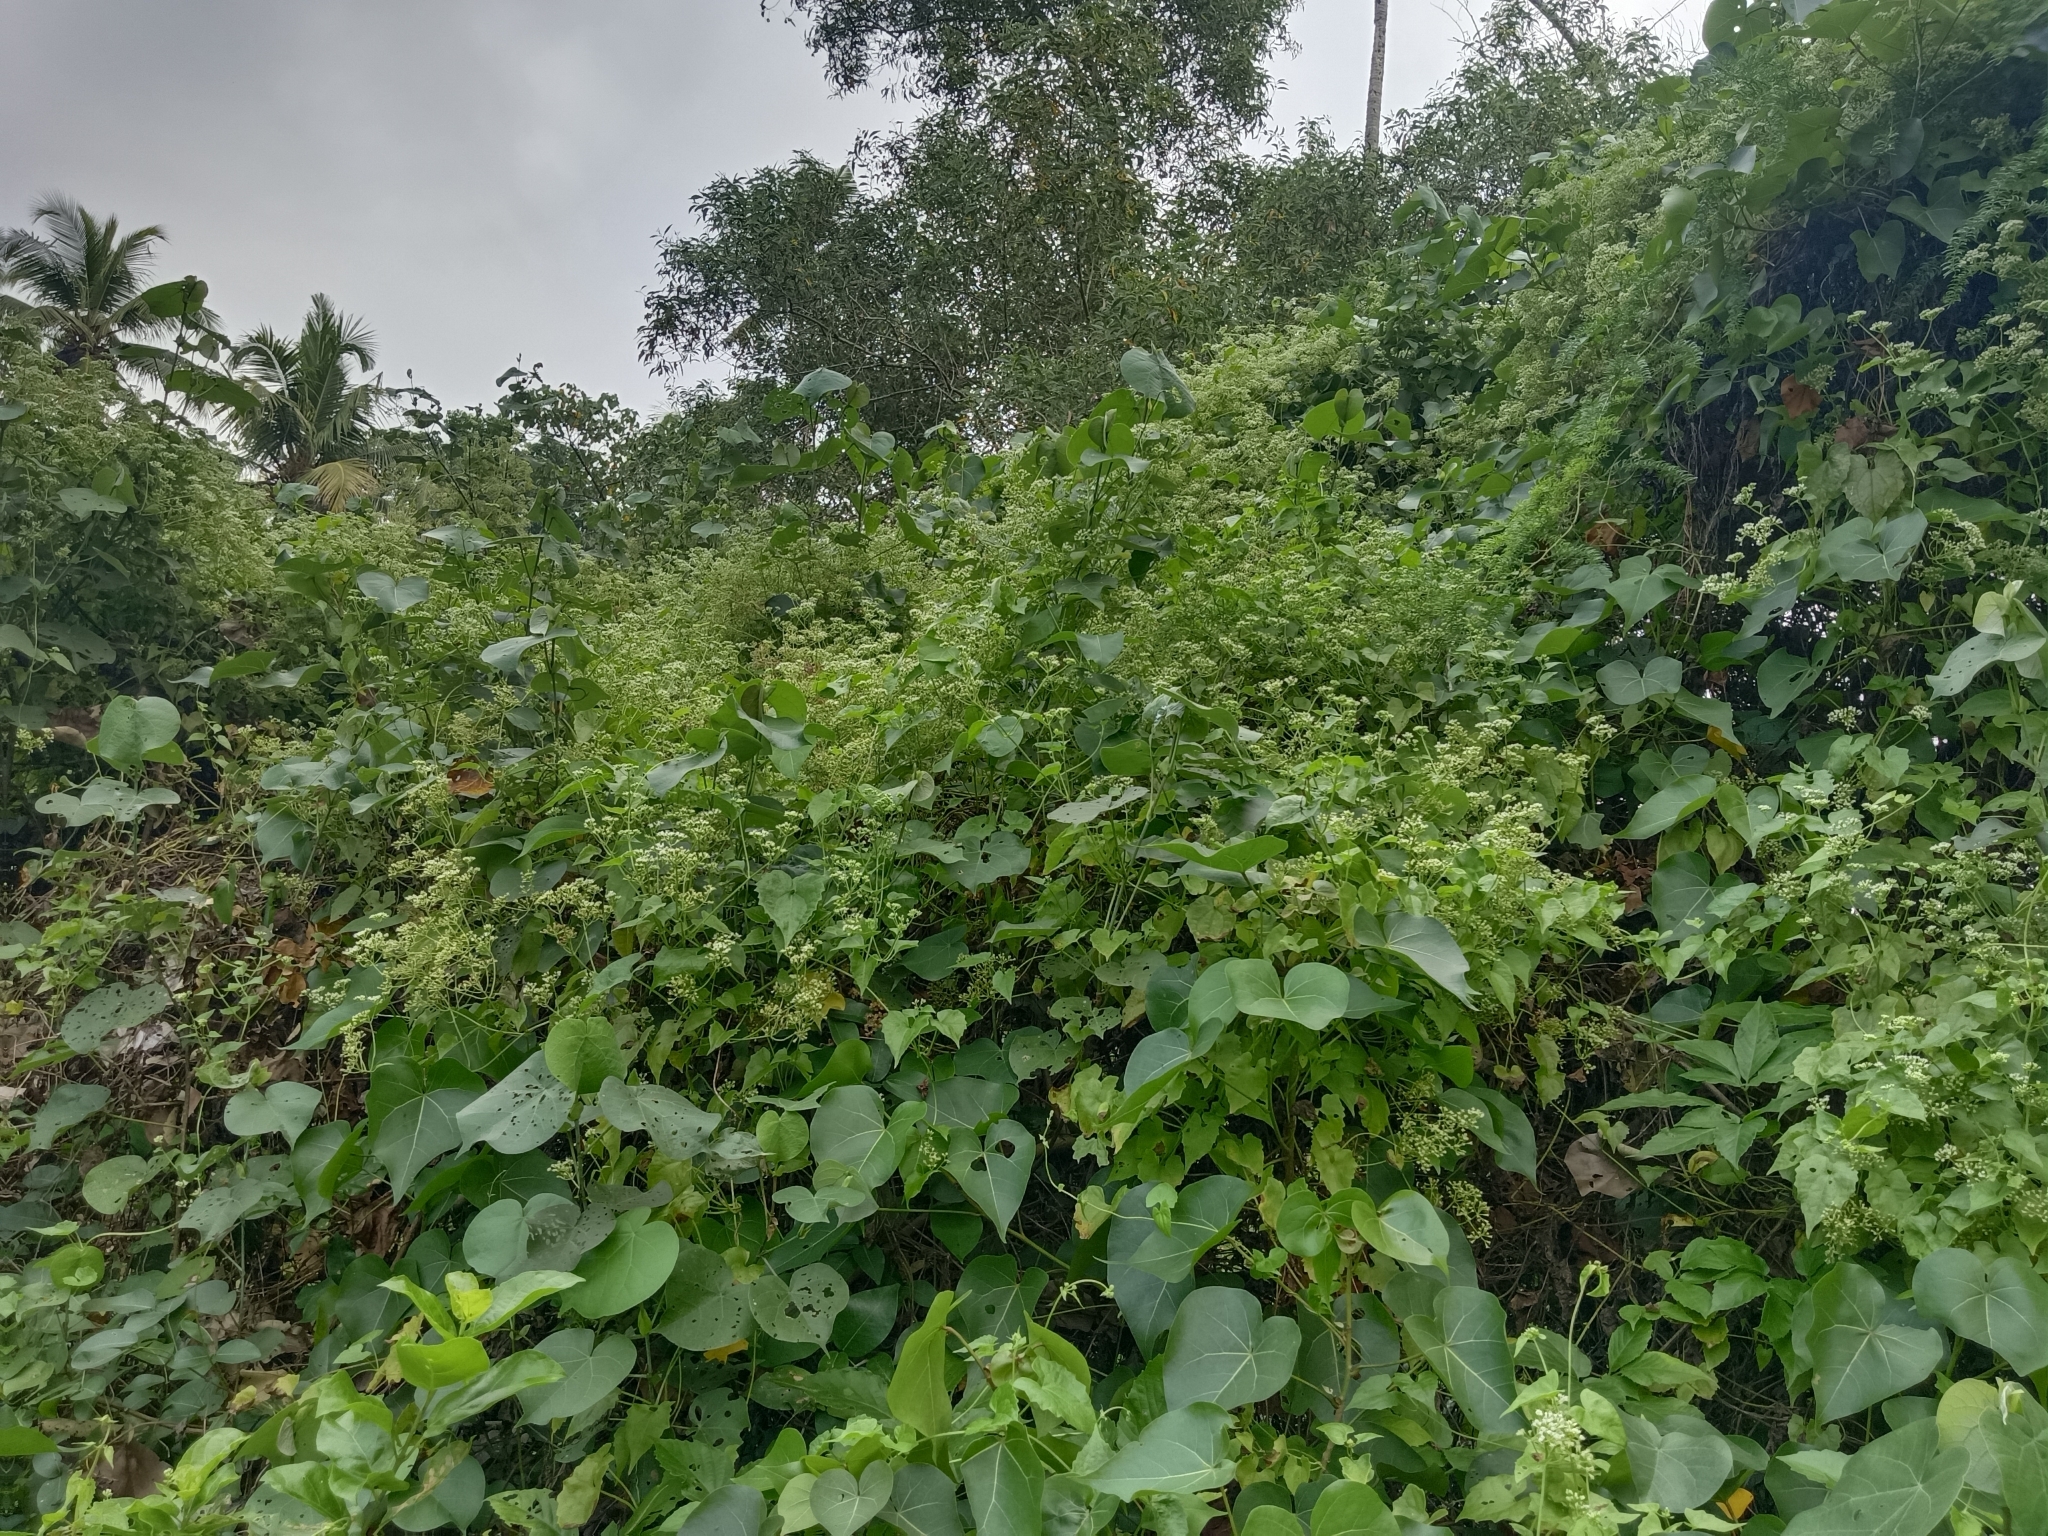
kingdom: Plantae
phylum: Tracheophyta
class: Magnoliopsida
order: Asterales
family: Asteraceae
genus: Mikania
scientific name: Mikania micrantha
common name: Mile-a-minute
